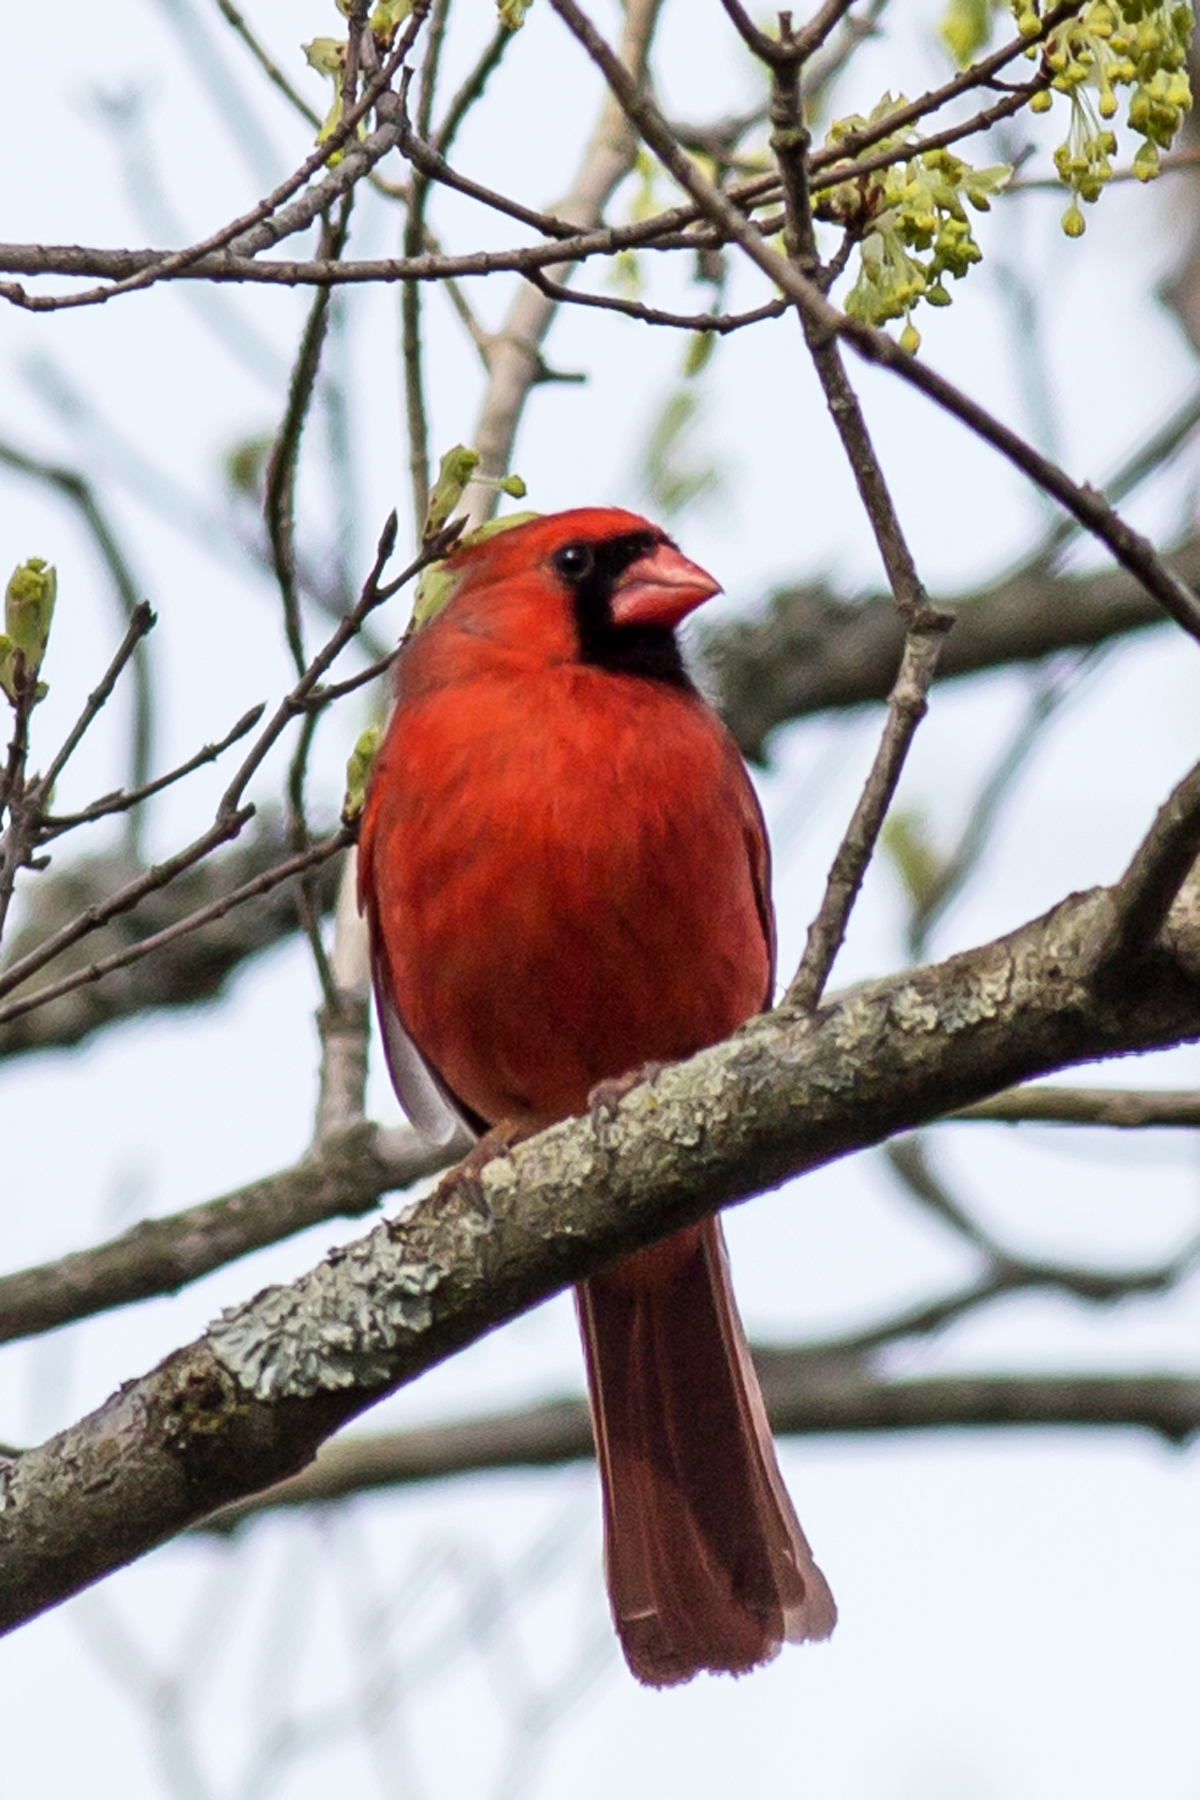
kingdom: Animalia
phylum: Chordata
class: Aves
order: Passeriformes
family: Cardinalidae
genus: Cardinalis
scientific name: Cardinalis cardinalis
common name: Northern cardinal
